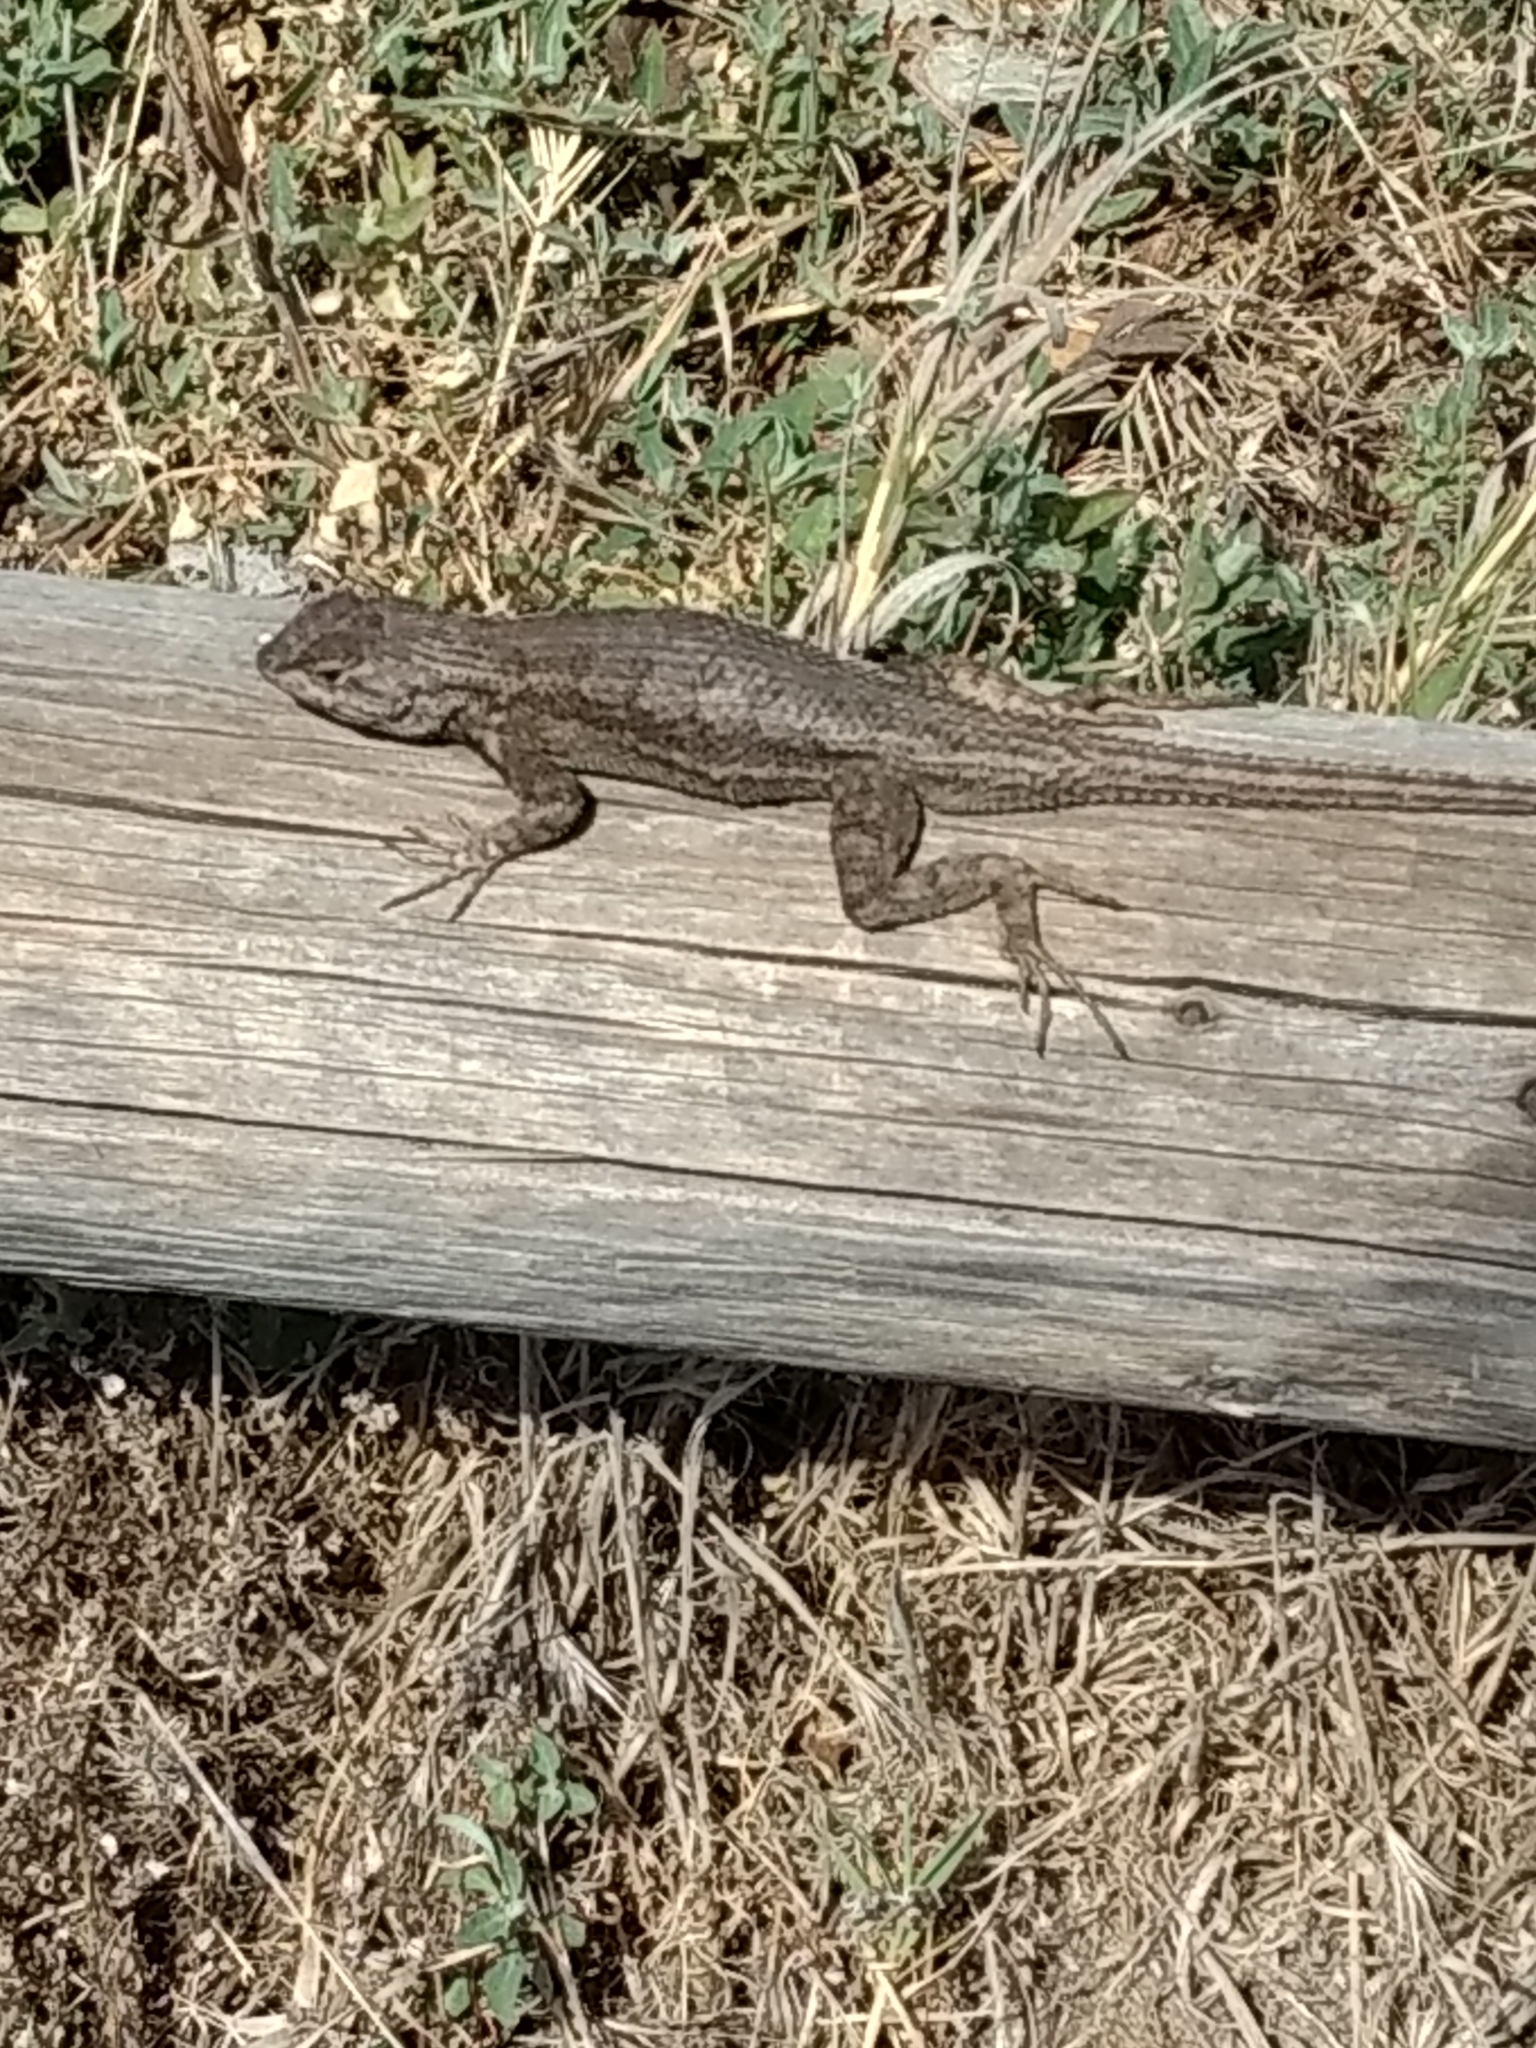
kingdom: Animalia
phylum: Chordata
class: Squamata
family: Phrynosomatidae
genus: Sceloporus
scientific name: Sceloporus occidentalis
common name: Western fence lizard
